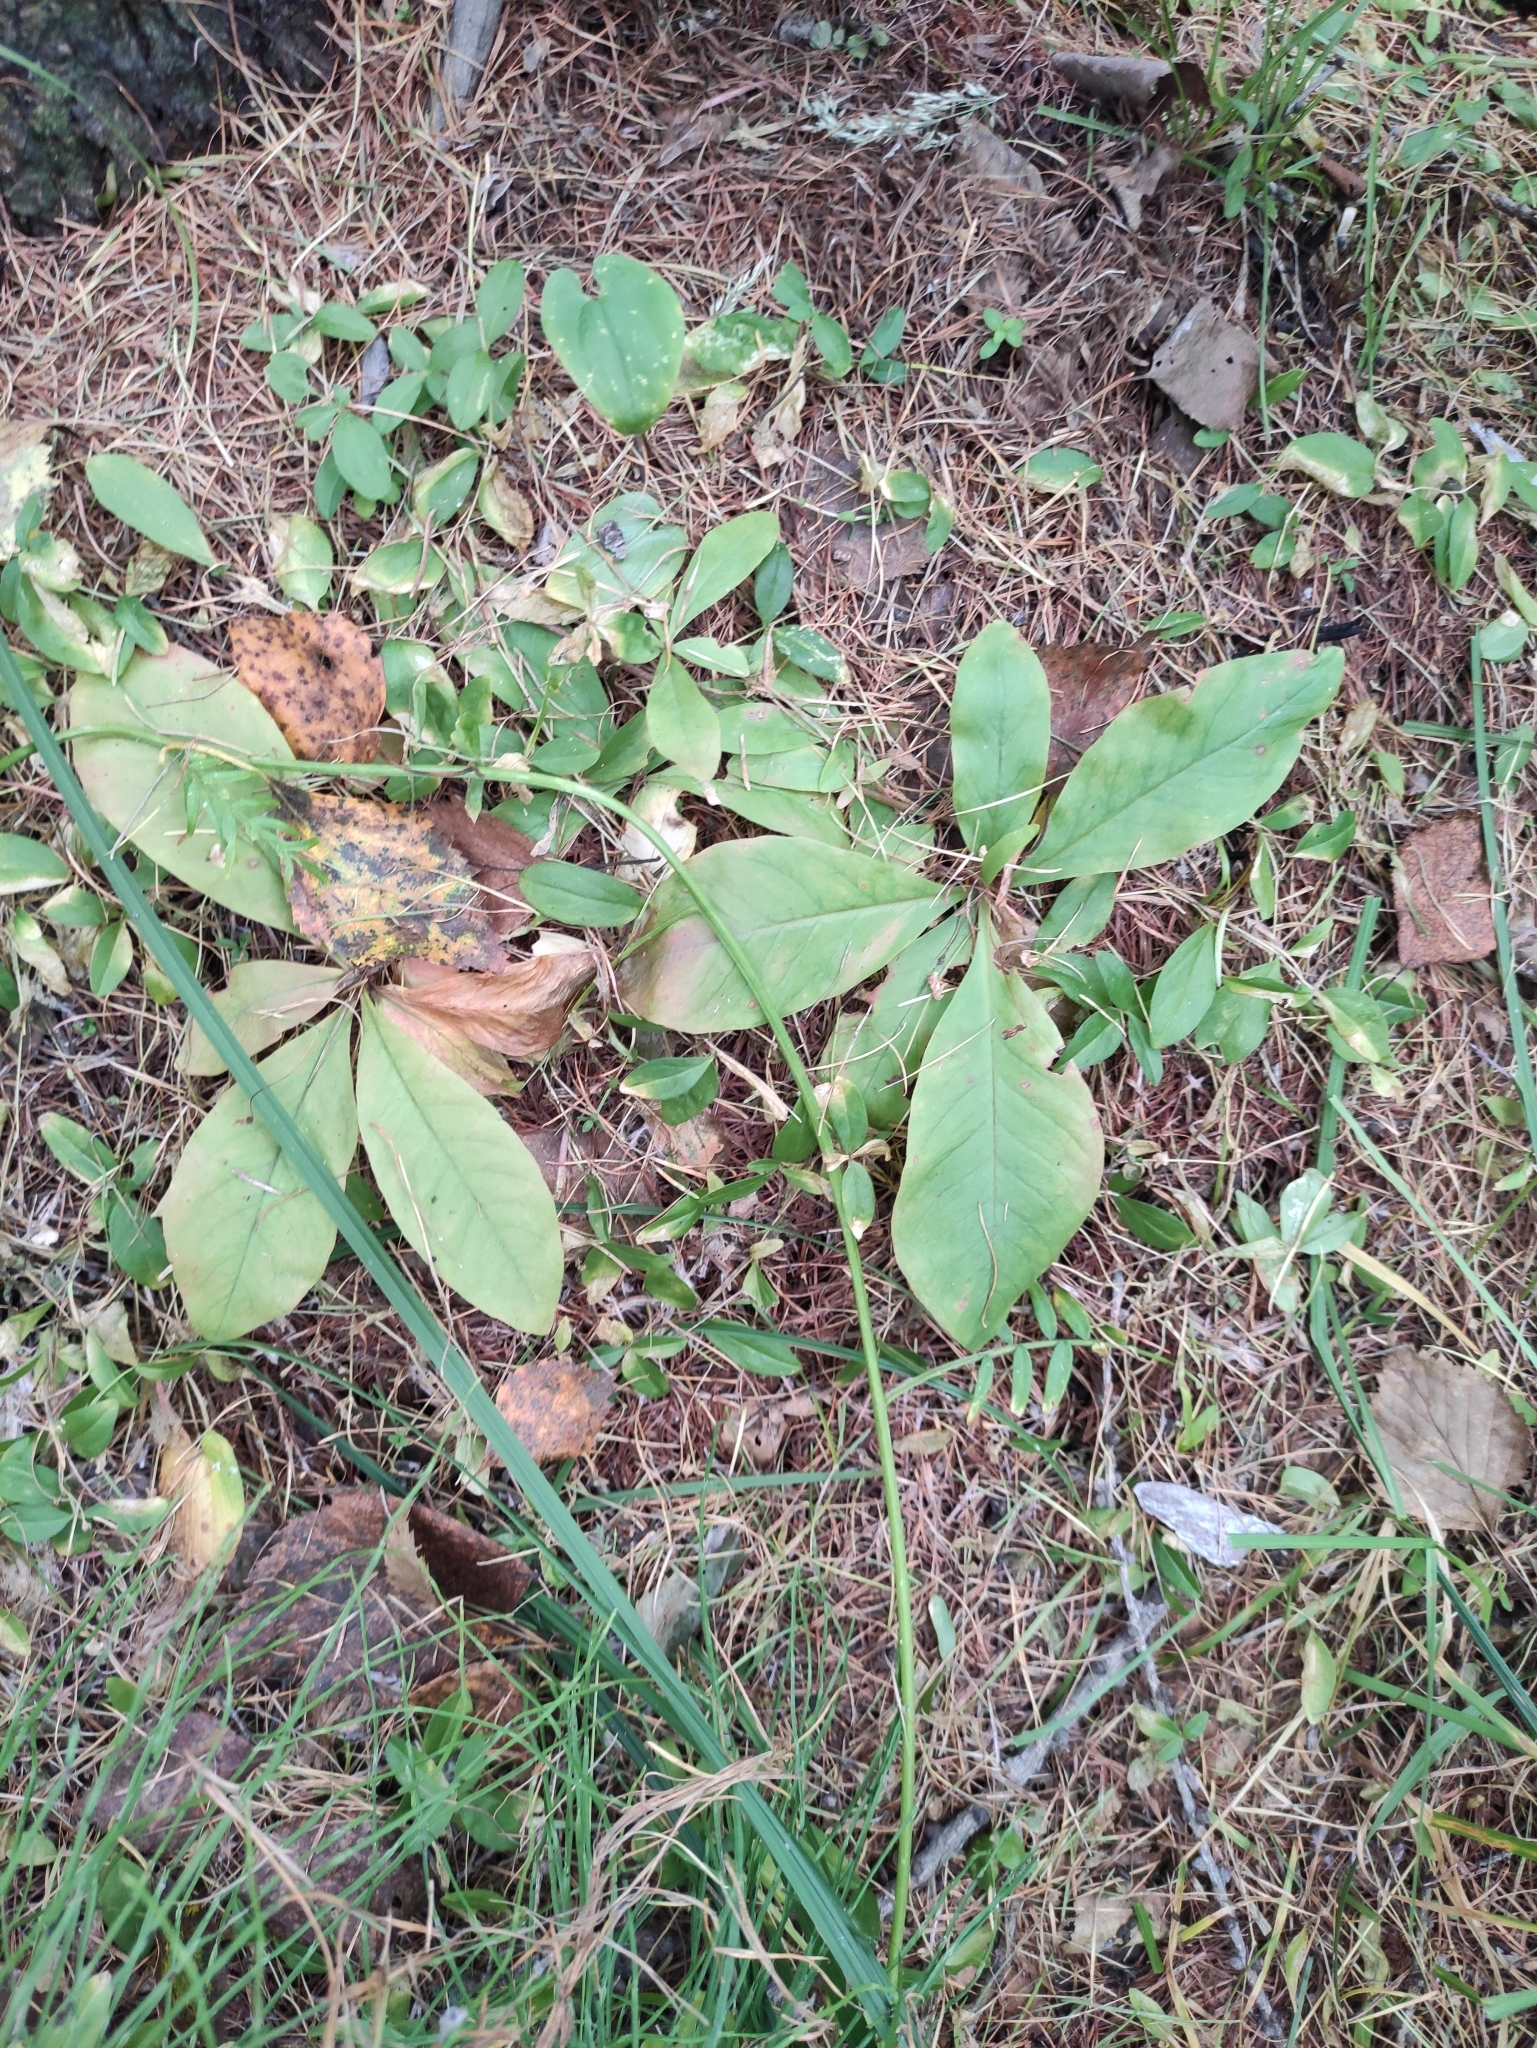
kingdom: Plantae
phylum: Tracheophyta
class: Magnoliopsida
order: Ericales
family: Primulaceae
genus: Lysimachia
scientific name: Lysimachia europaea
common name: Arctic starflower
